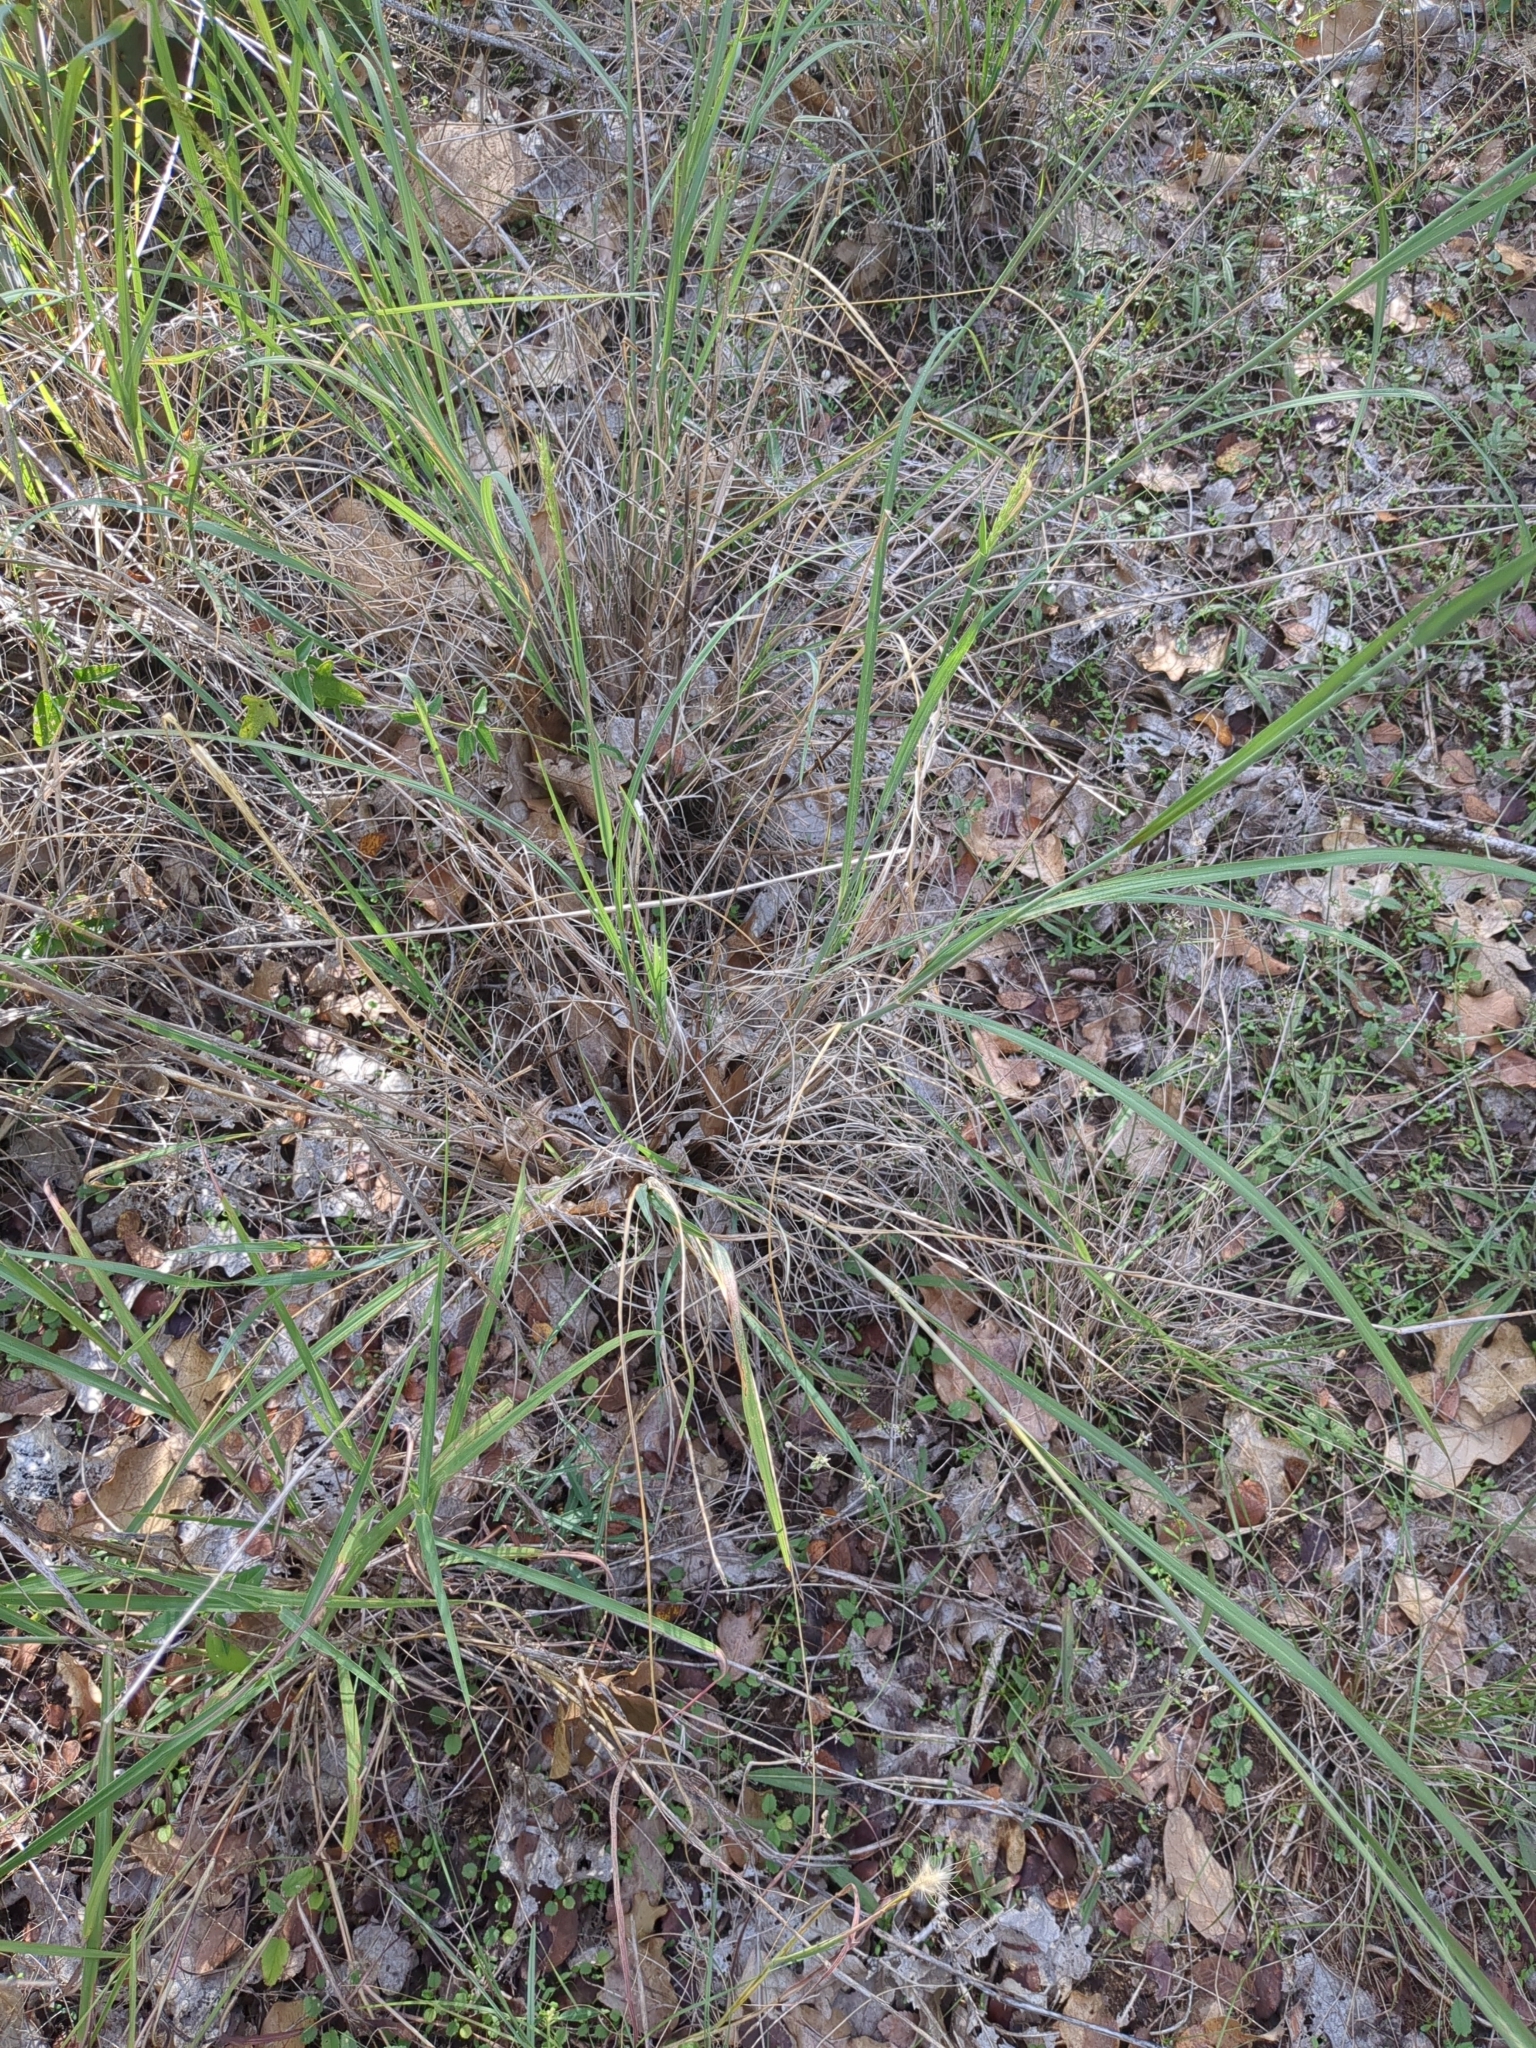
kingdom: Plantae
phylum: Tracheophyta
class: Liliopsida
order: Poales
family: Poaceae
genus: Disakisperma
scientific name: Disakisperma dubium
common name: Green sprangletop
